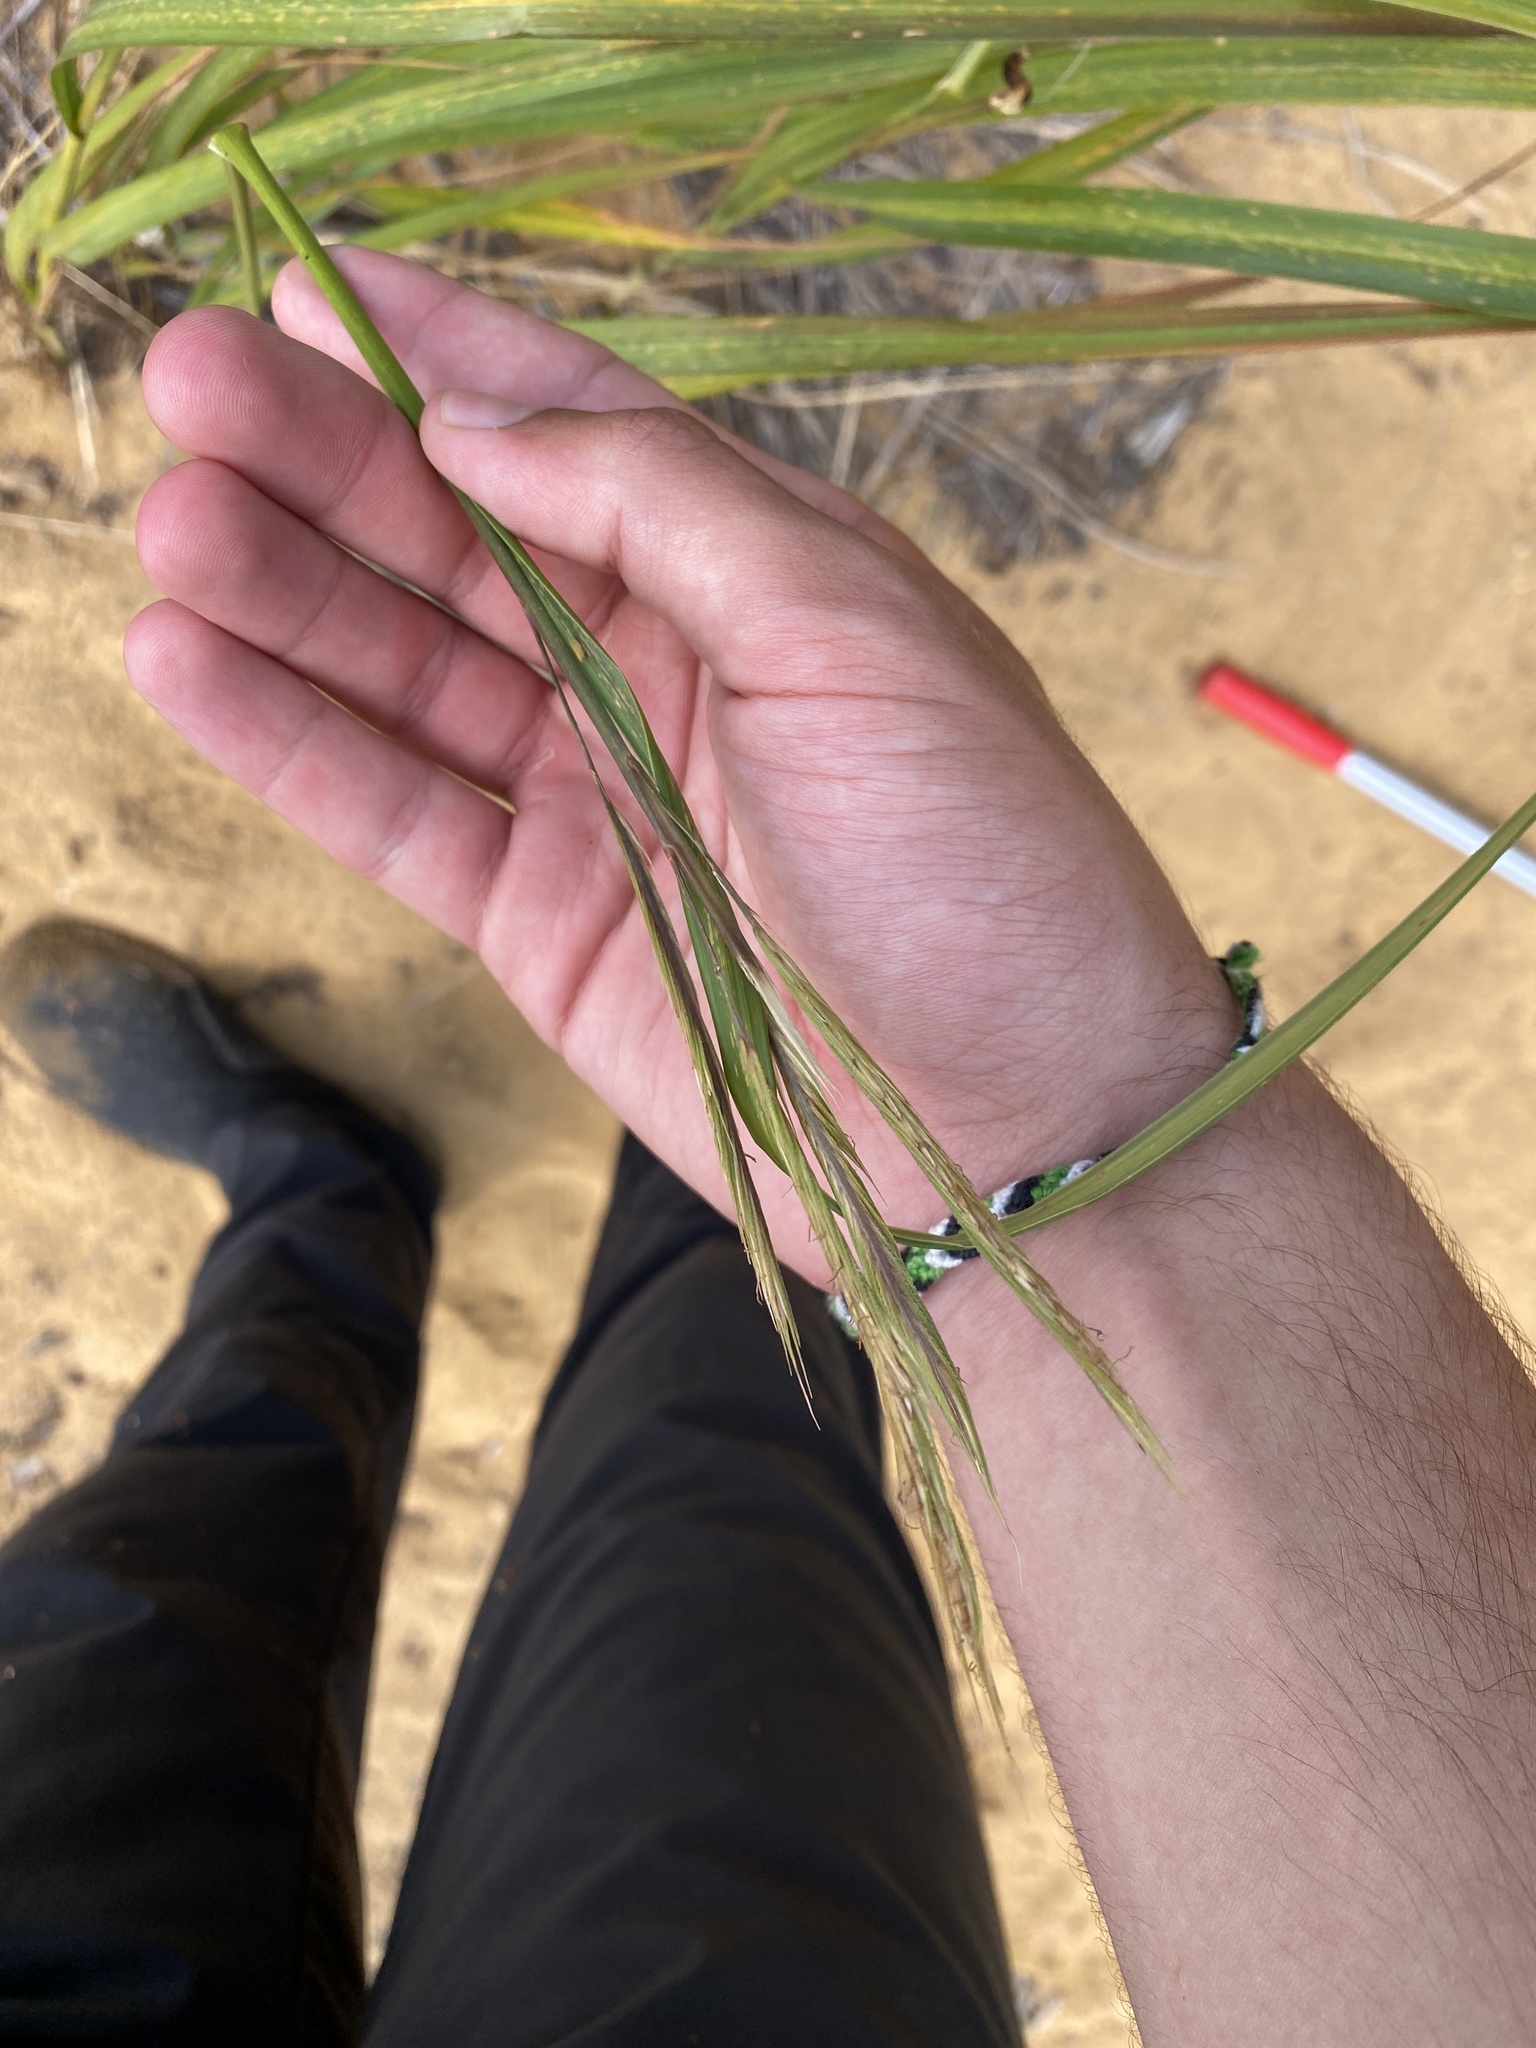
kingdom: Plantae
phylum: Tracheophyta
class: Liliopsida
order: Poales
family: Poaceae
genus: Sporobolus
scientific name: Sporobolus michauxianus
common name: Freshwater cordgrass
